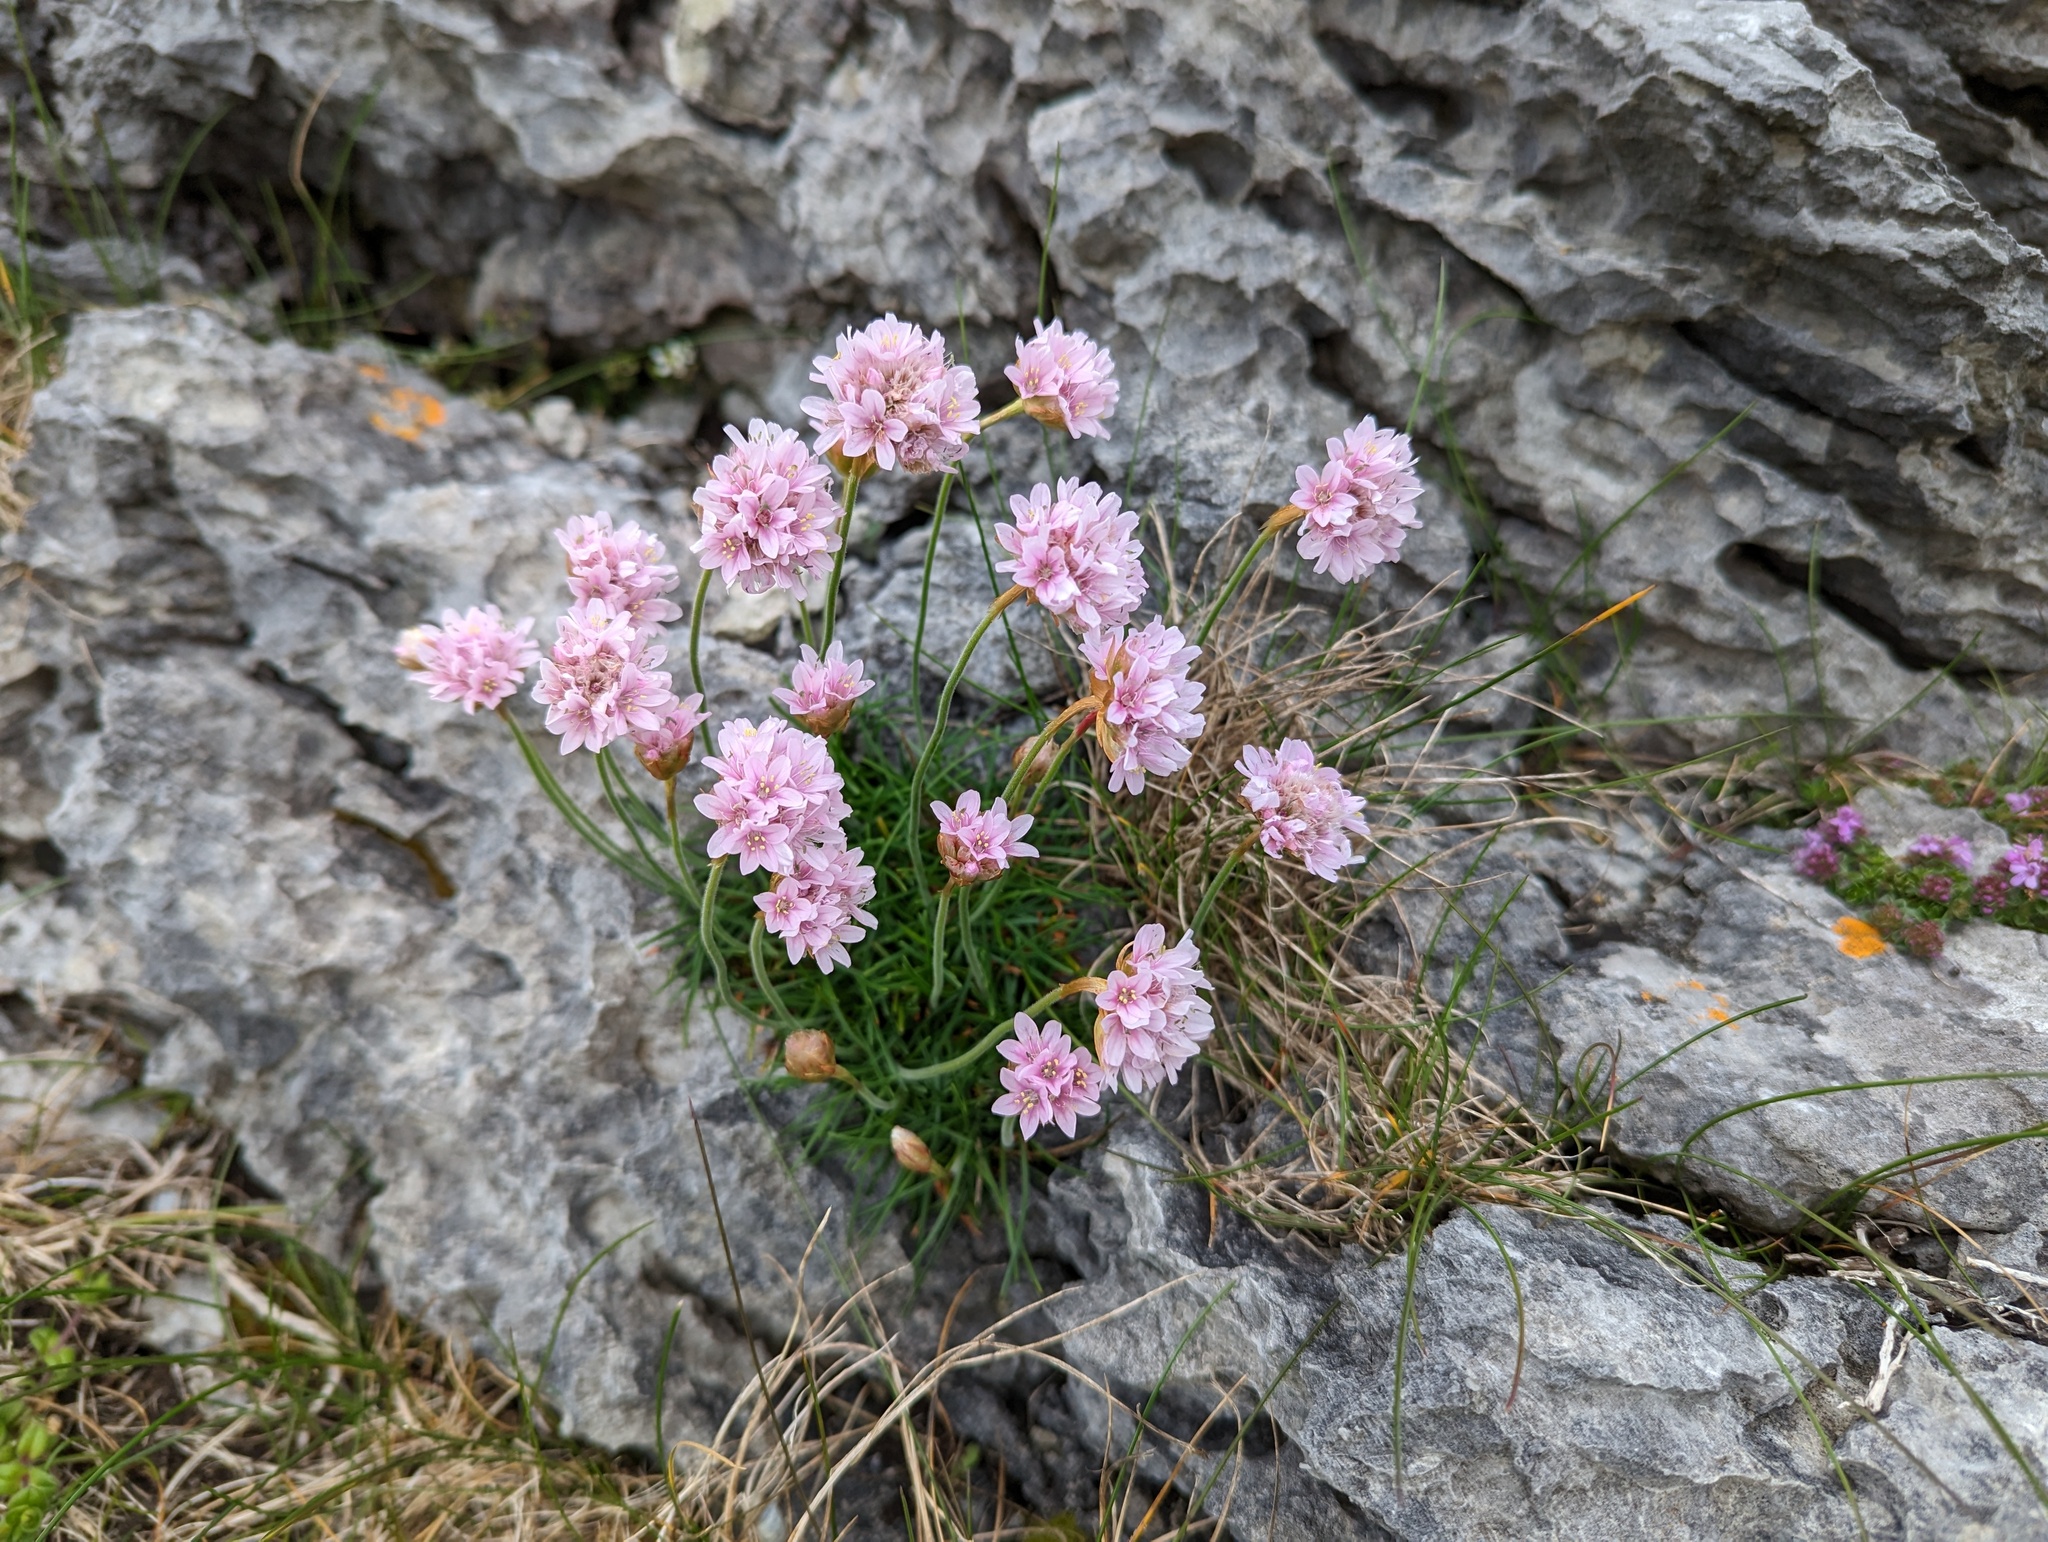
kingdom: Plantae
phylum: Tracheophyta
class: Magnoliopsida
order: Caryophyllales
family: Plumbaginaceae
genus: Armeria
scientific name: Armeria maritima
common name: Thrift
